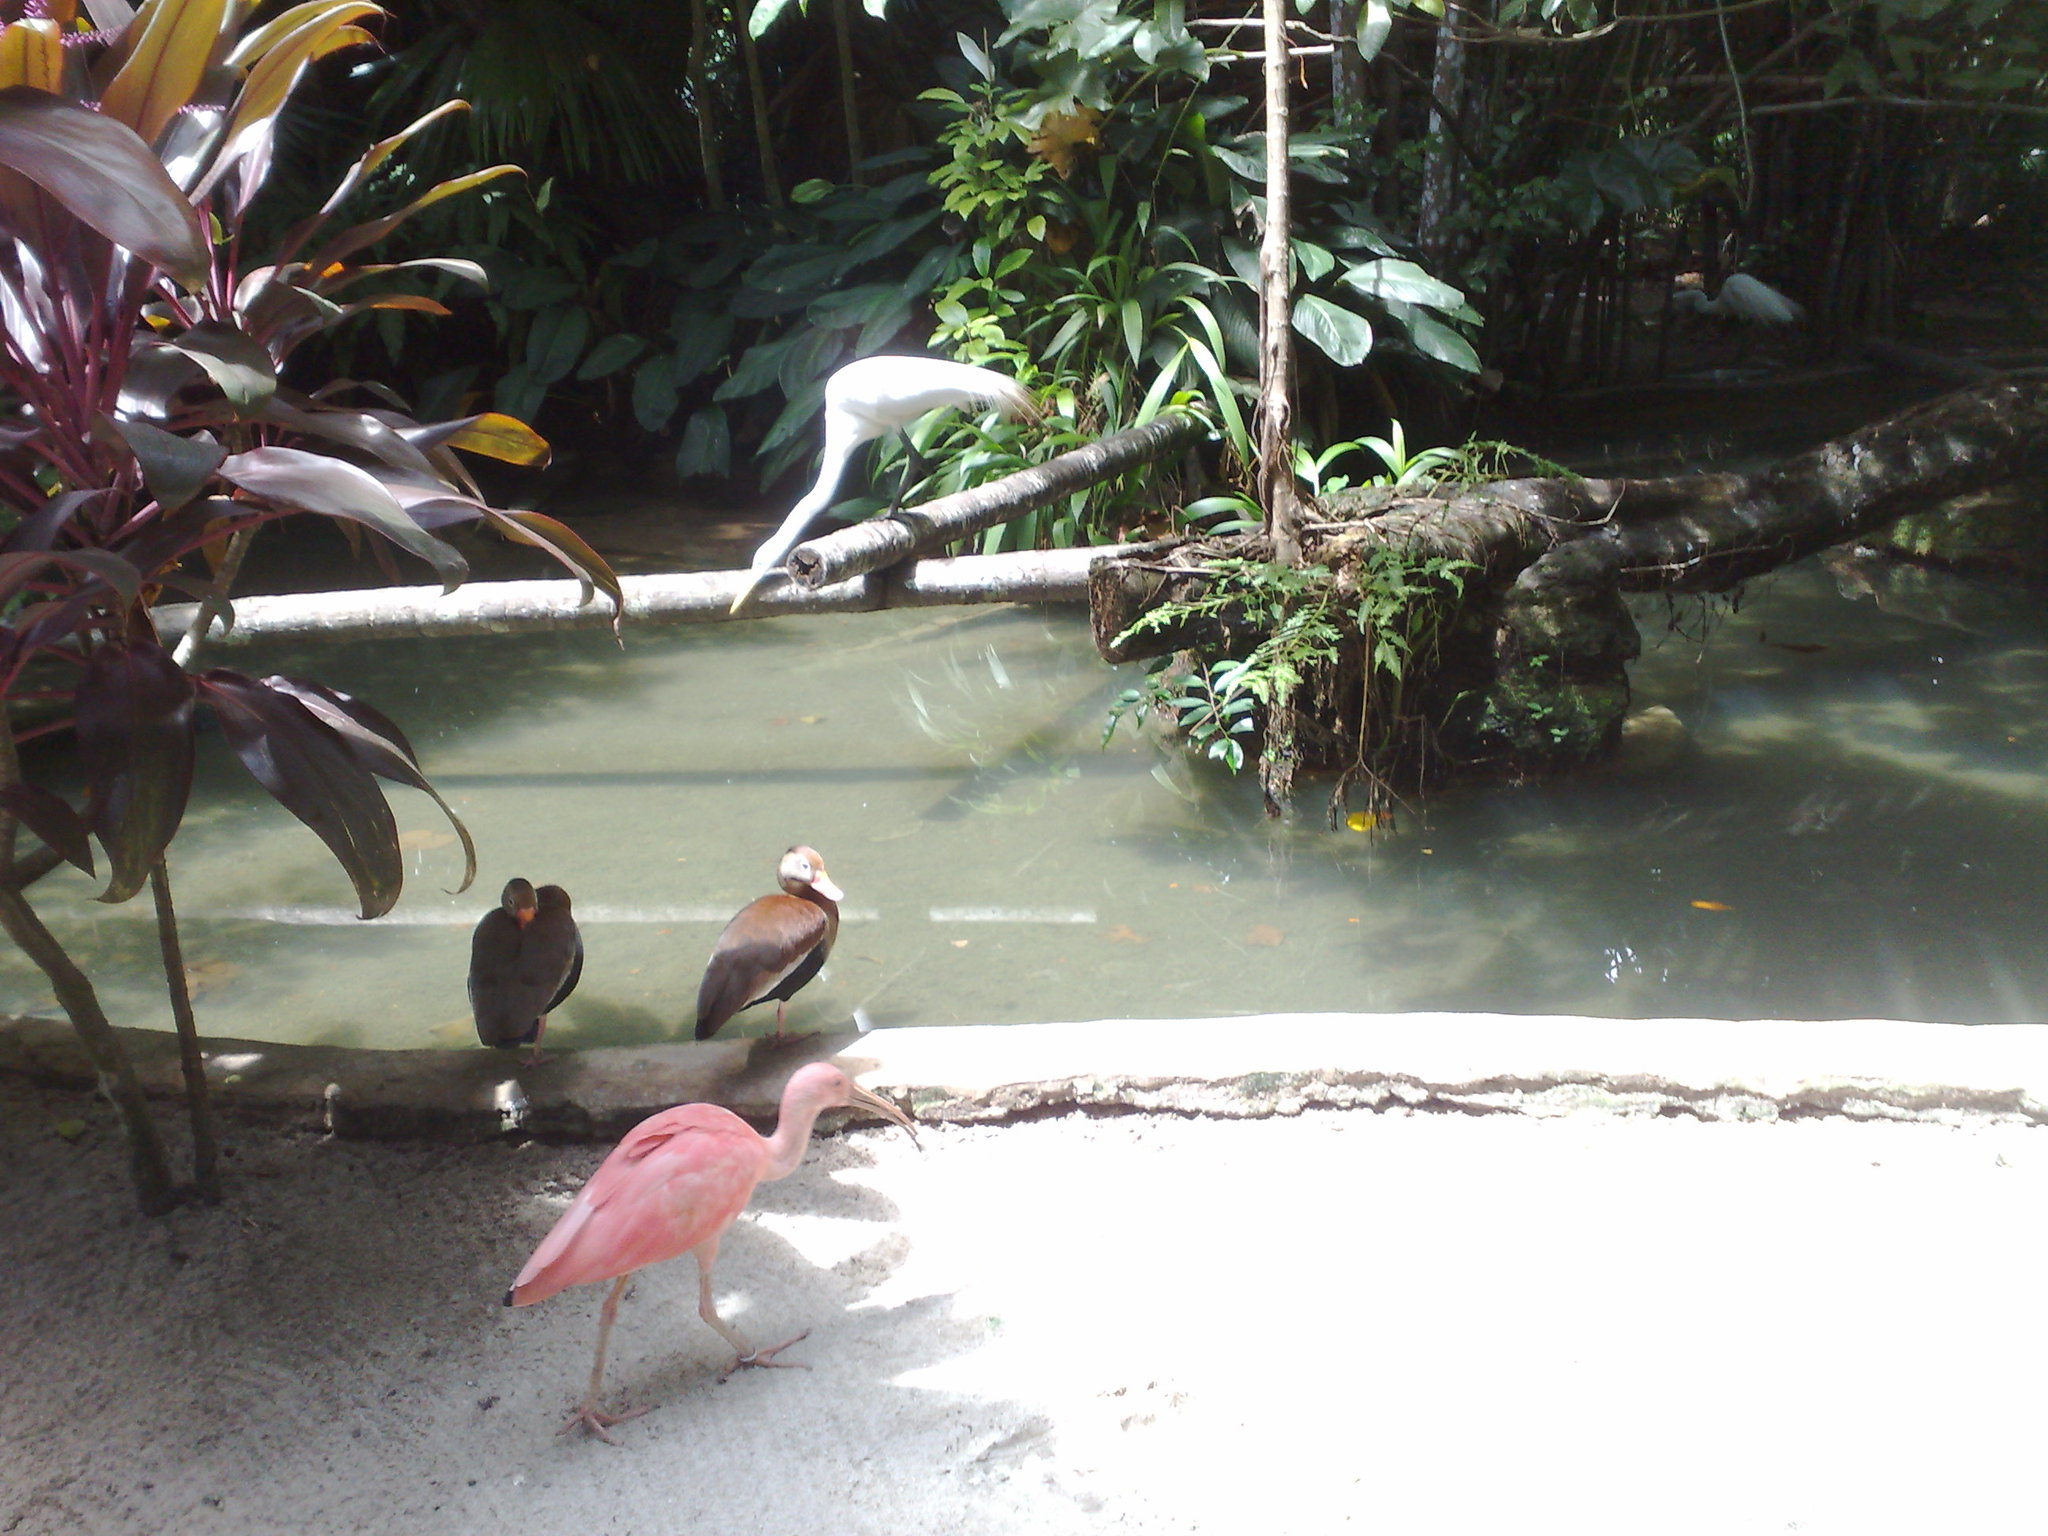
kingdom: Animalia
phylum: Chordata
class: Aves
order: Pelecaniformes
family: Threskiornithidae
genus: Eudocimus
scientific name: Eudocimus ruber
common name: Scarlet ibis
